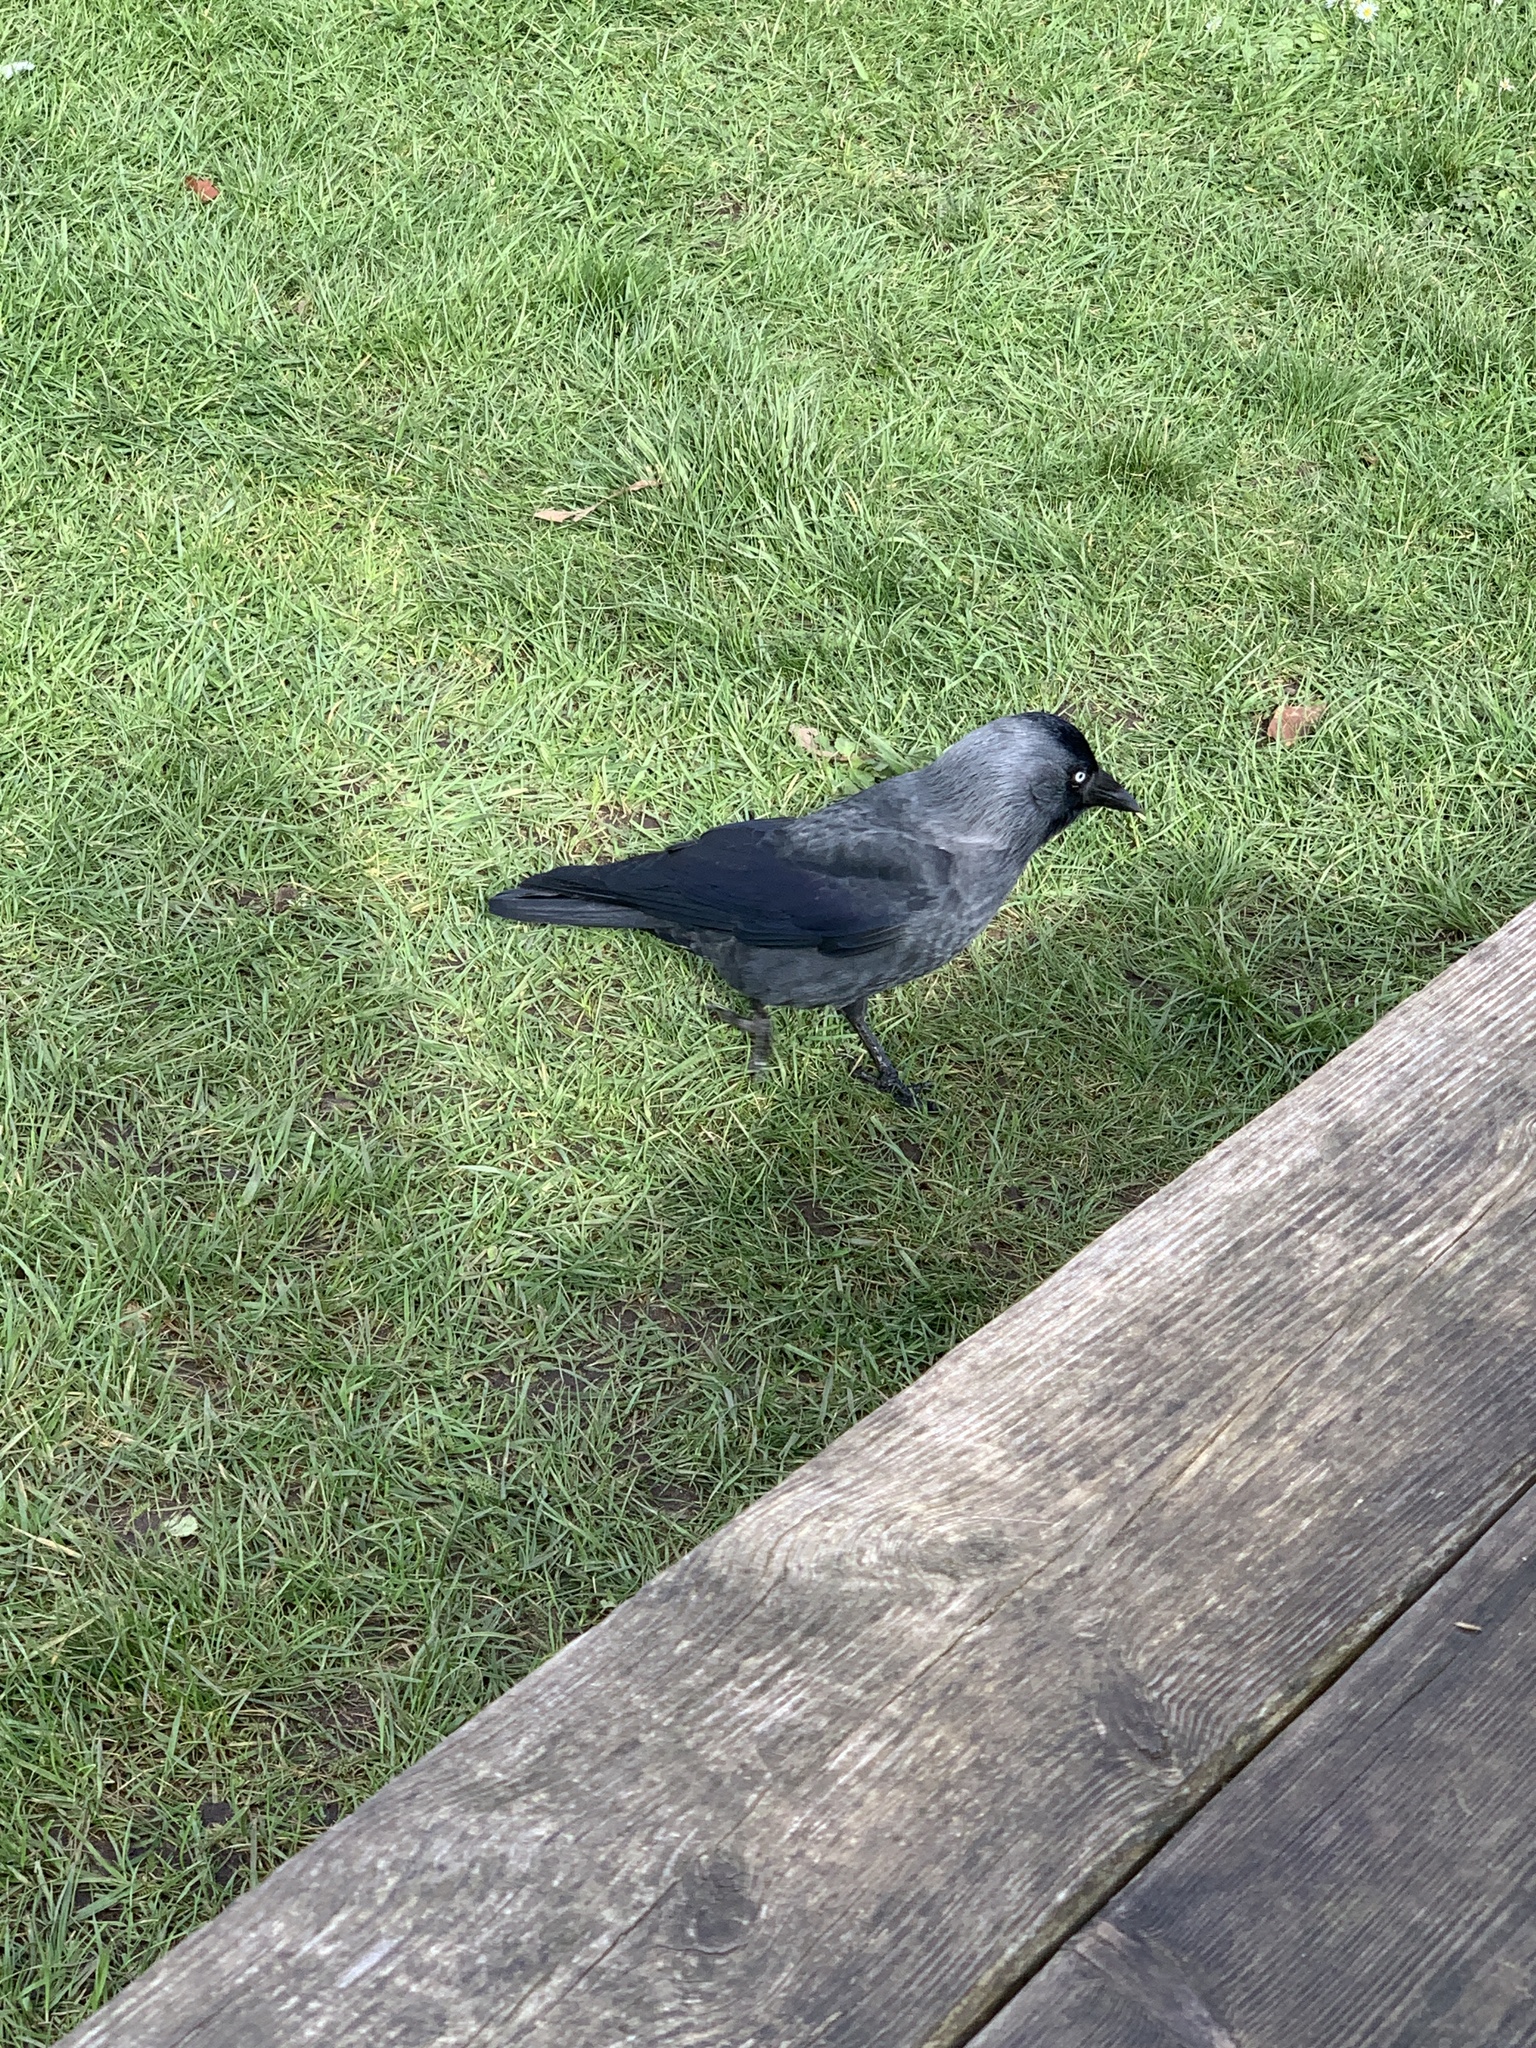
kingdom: Animalia
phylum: Chordata
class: Aves
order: Passeriformes
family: Corvidae
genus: Coloeus
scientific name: Coloeus monedula
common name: Western jackdaw
